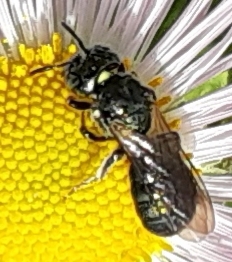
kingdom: Animalia
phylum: Arthropoda
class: Insecta
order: Hymenoptera
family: Apidae
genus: Zadontomerus
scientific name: Zadontomerus
